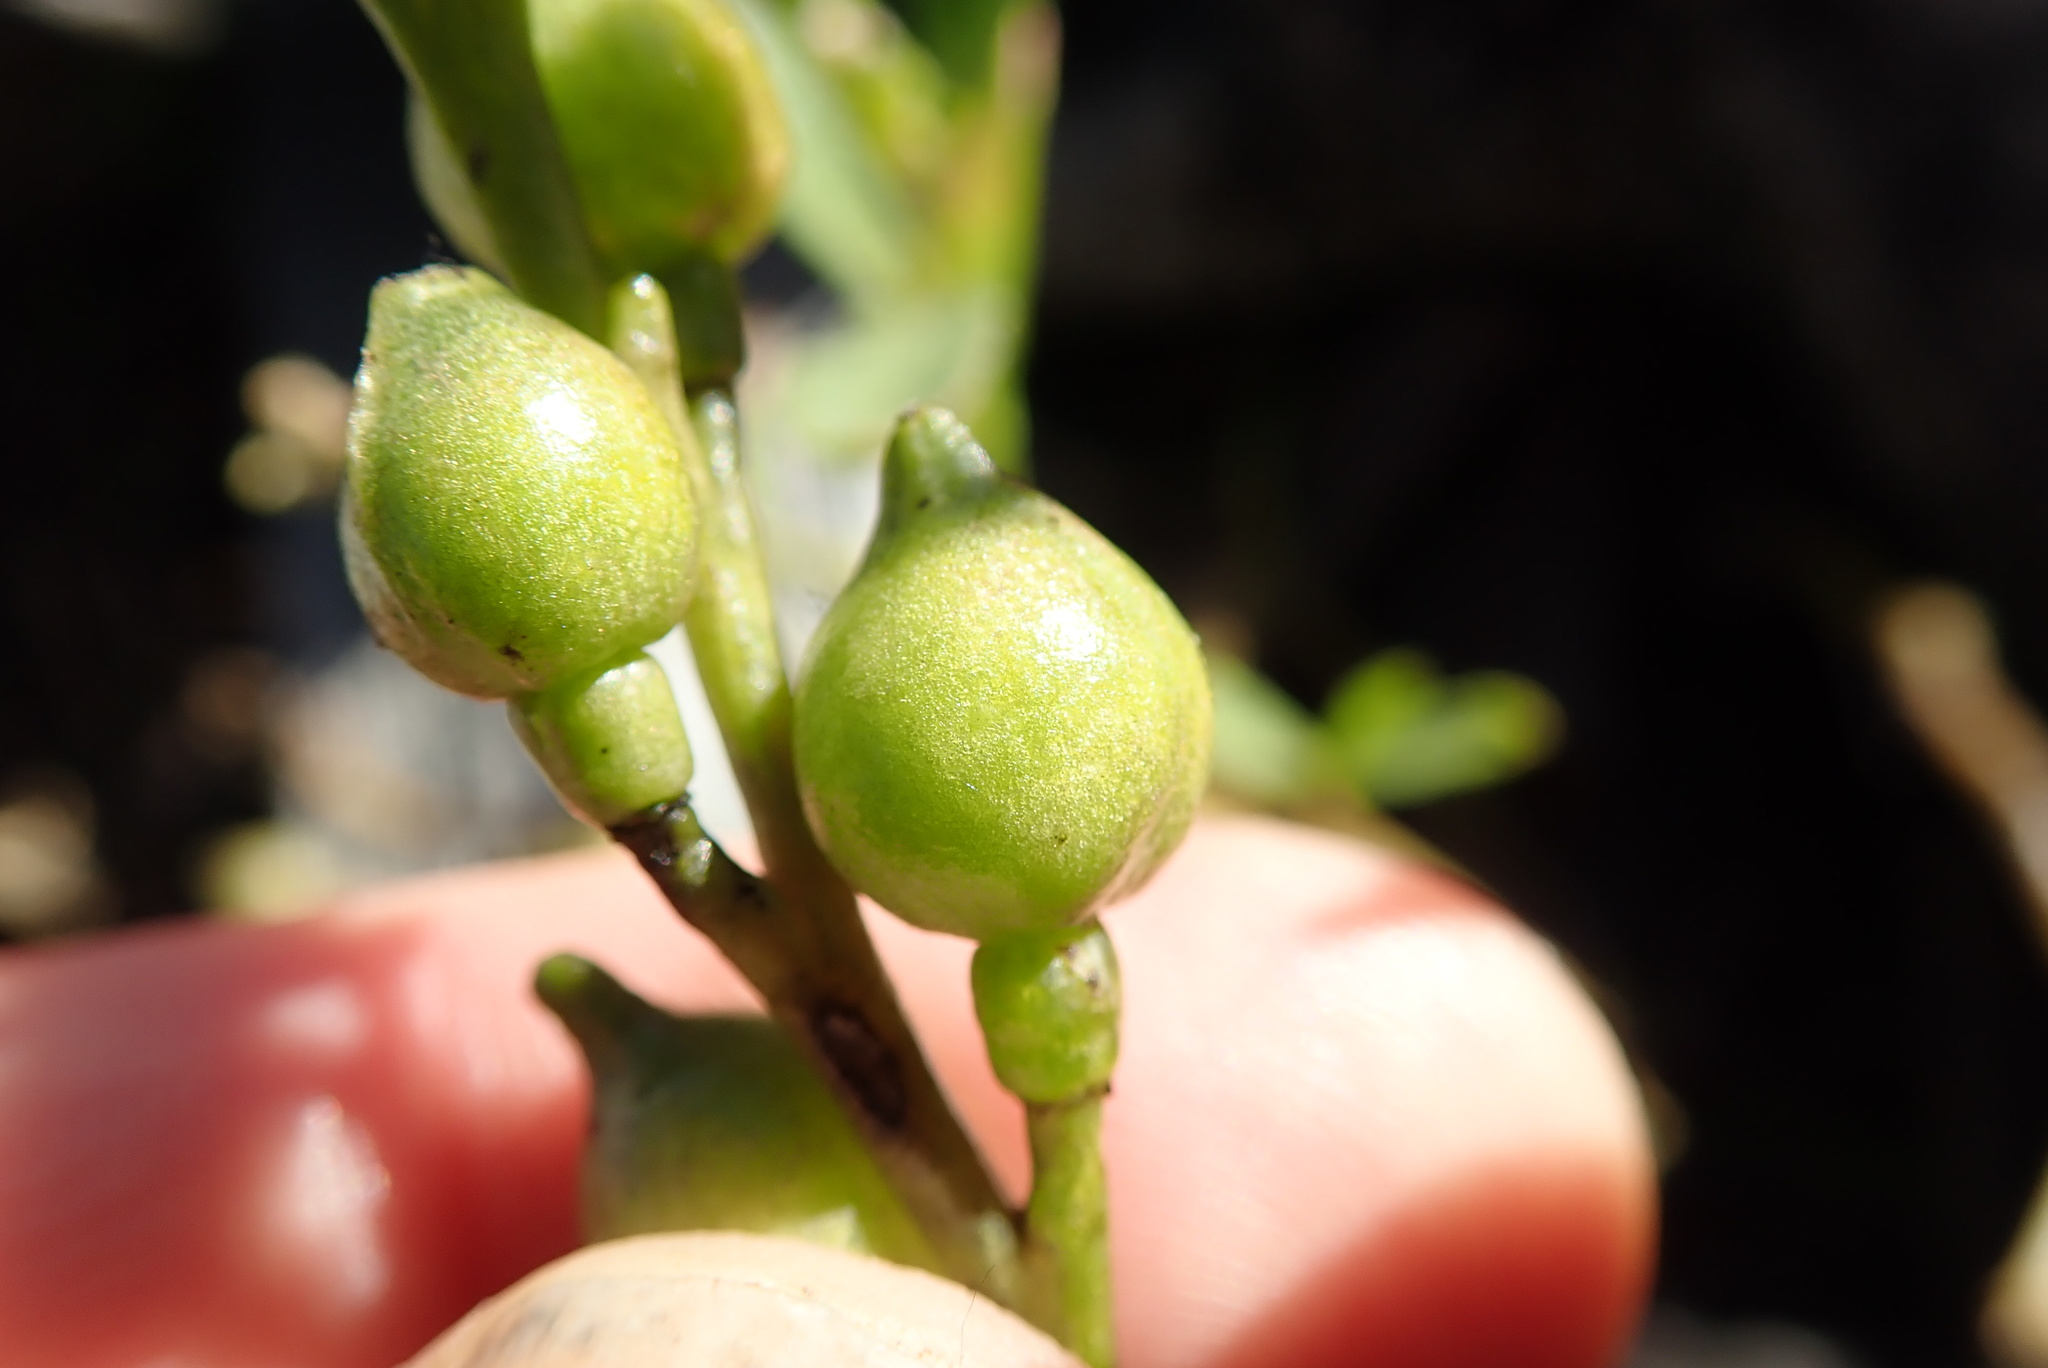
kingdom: Plantae
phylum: Tracheophyta
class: Magnoliopsida
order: Brassicales
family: Brassicaceae
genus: Cakile
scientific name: Cakile edentula
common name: American sea rocket
